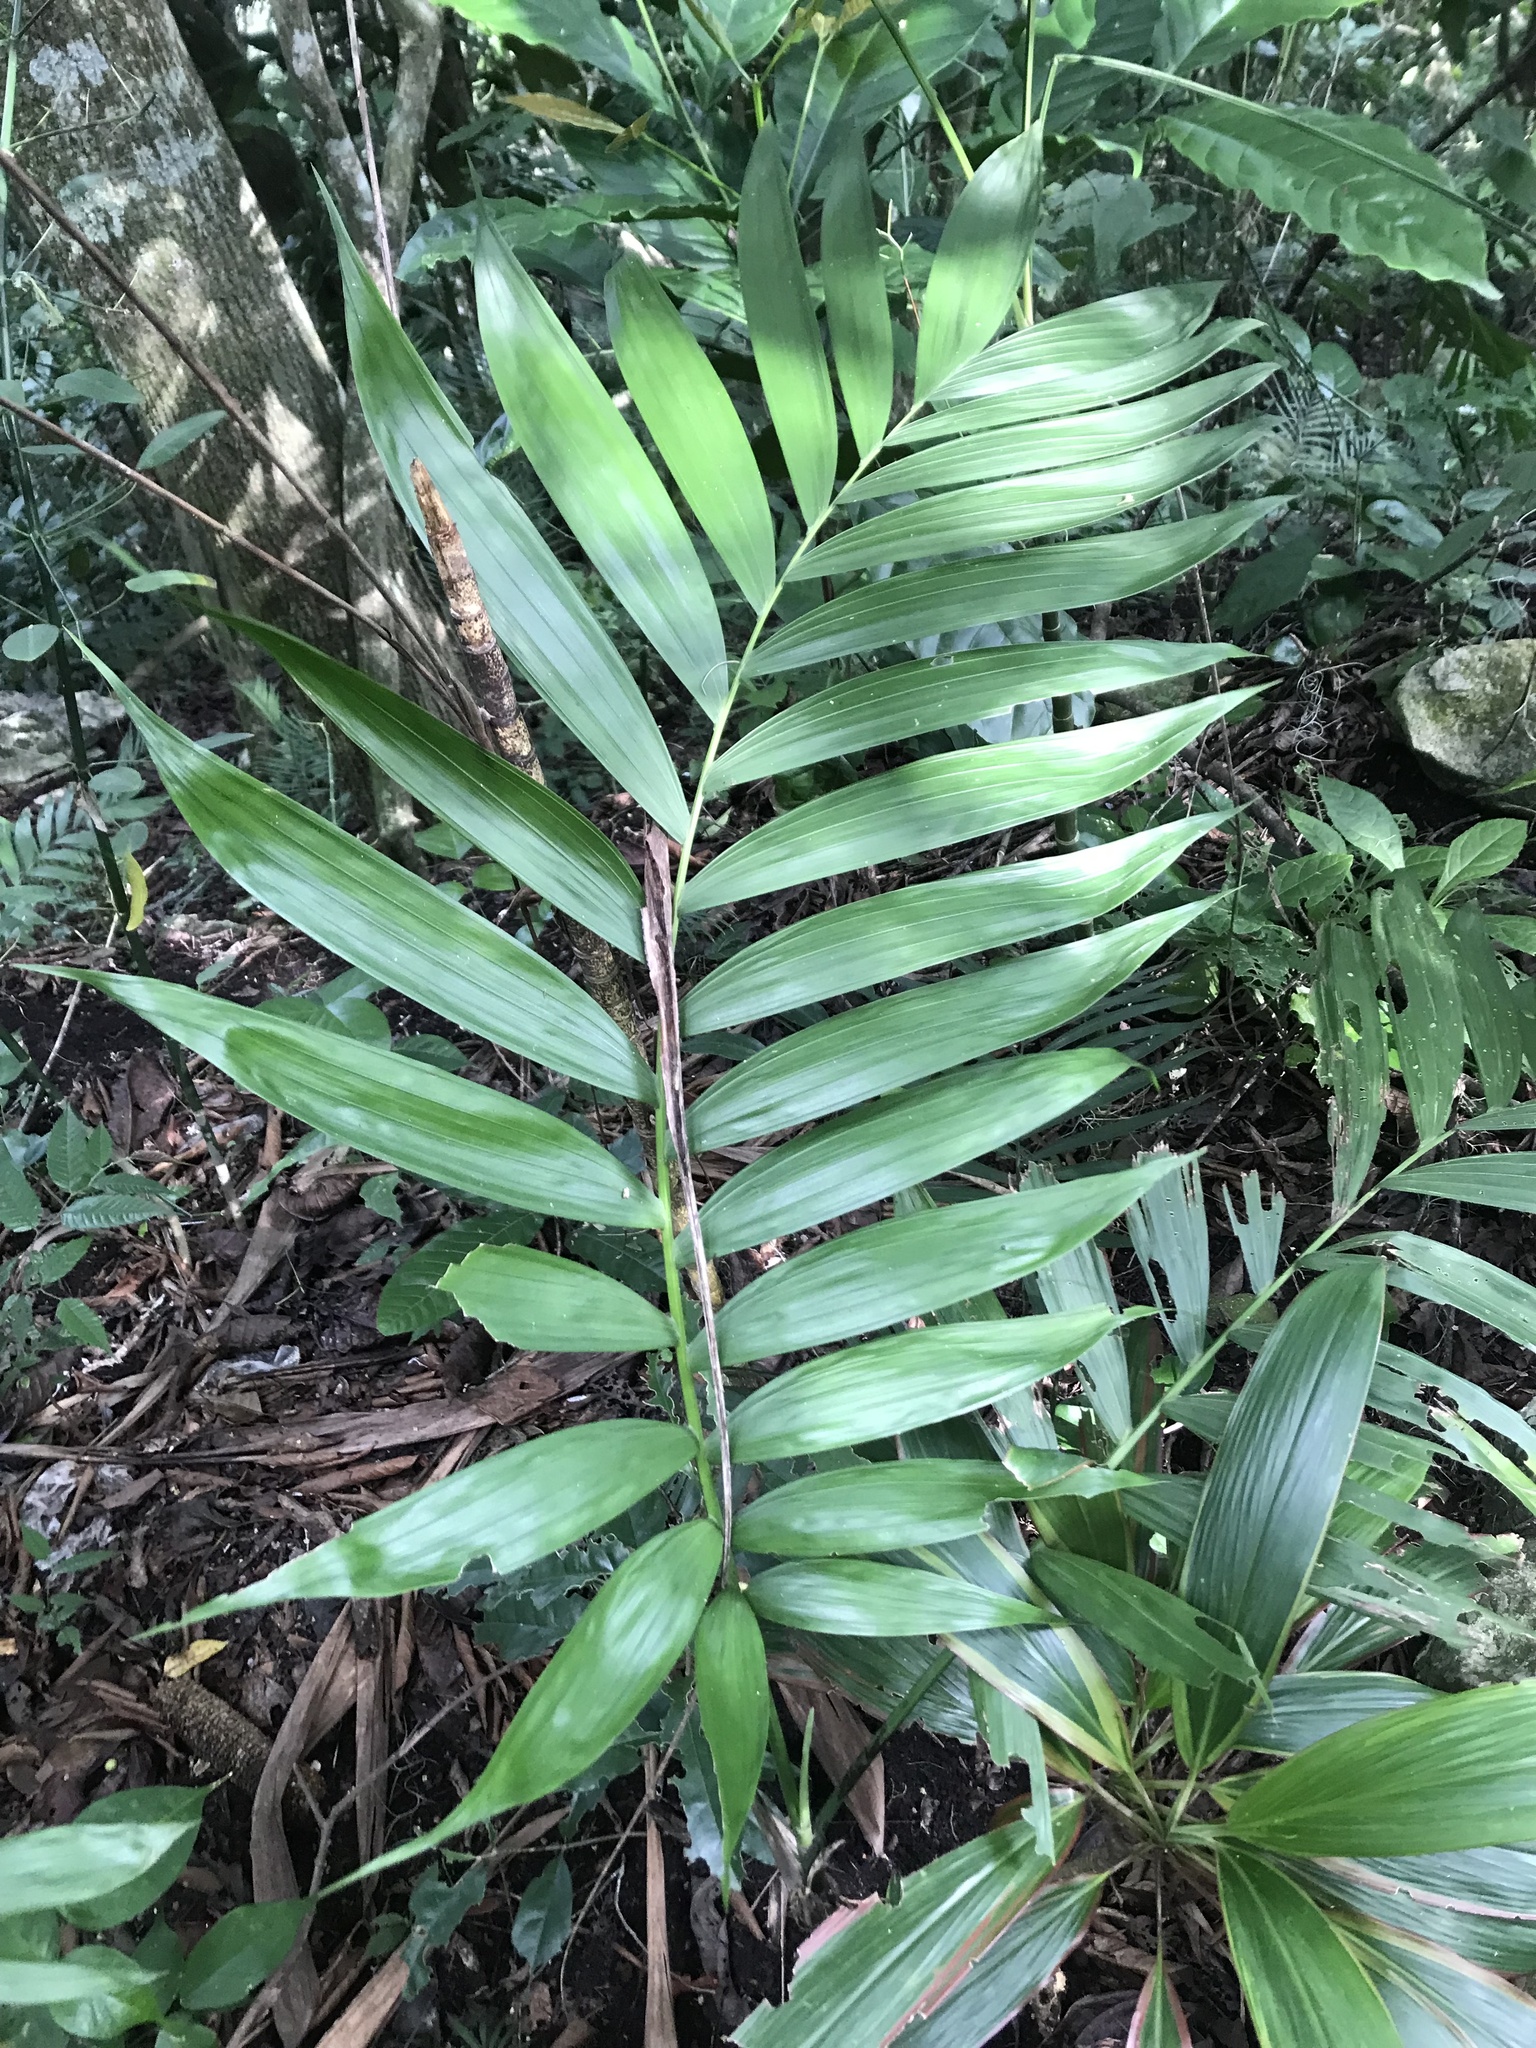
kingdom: Plantae
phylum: Tracheophyta
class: Liliopsida
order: Arecales
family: Arecaceae
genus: Chamaedorea
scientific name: Chamaedorea tepejilote
